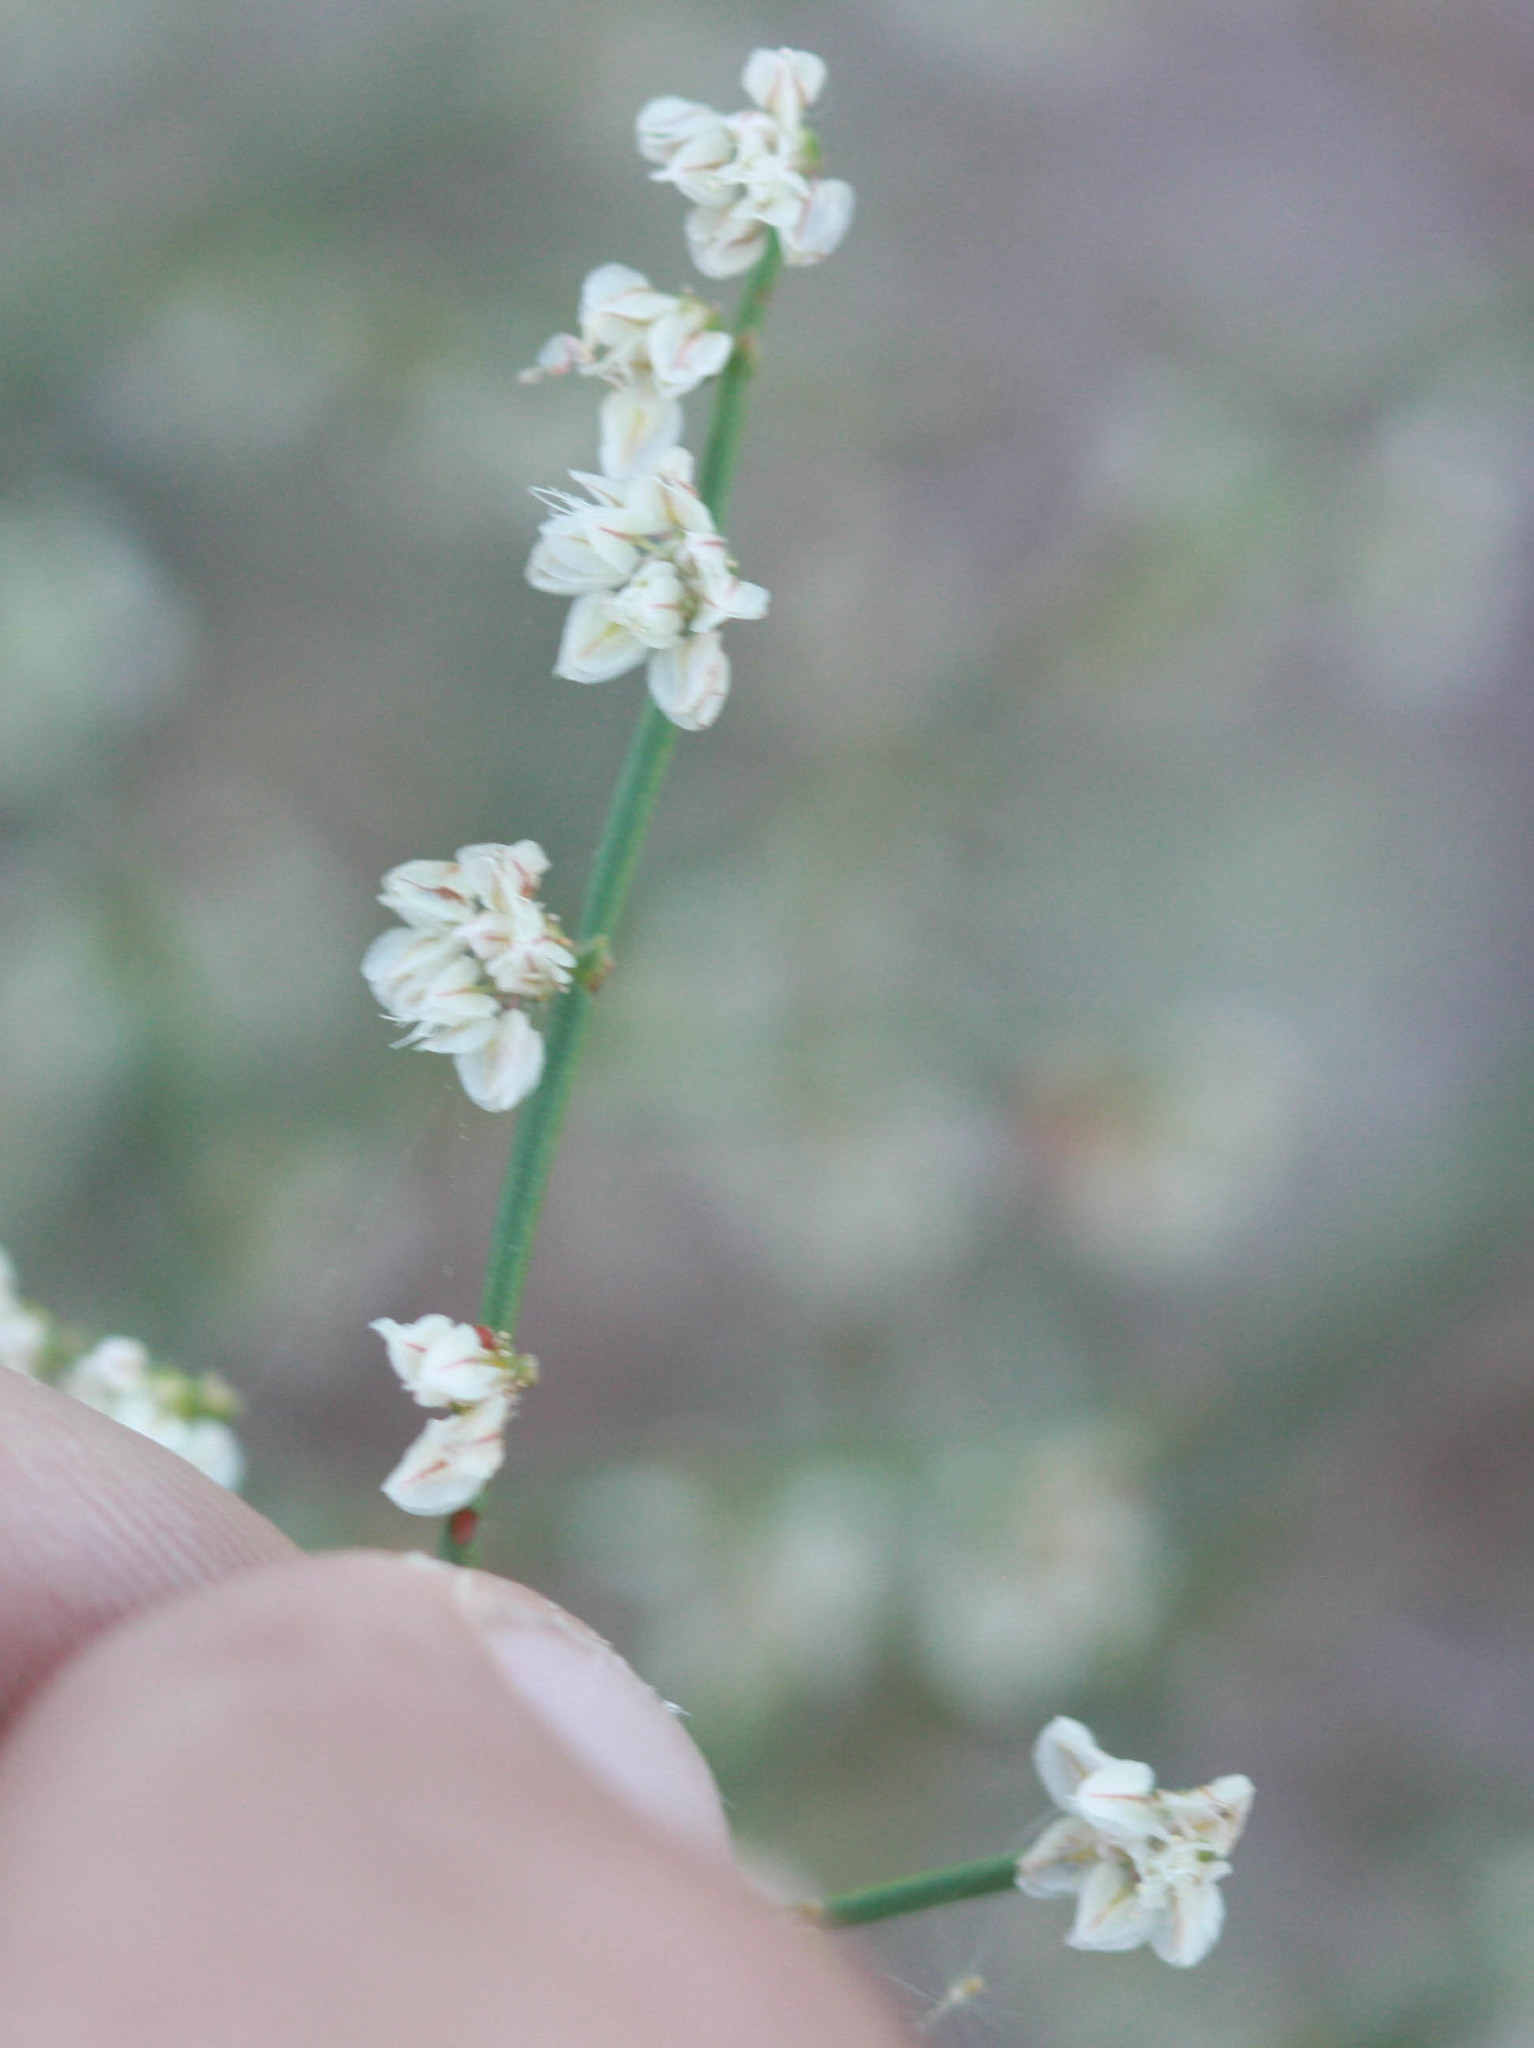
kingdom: Plantae
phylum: Tracheophyta
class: Magnoliopsida
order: Caryophyllales
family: Polygonaceae
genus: Eriogonum
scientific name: Eriogonum deflexum
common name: Skeleton-weed
